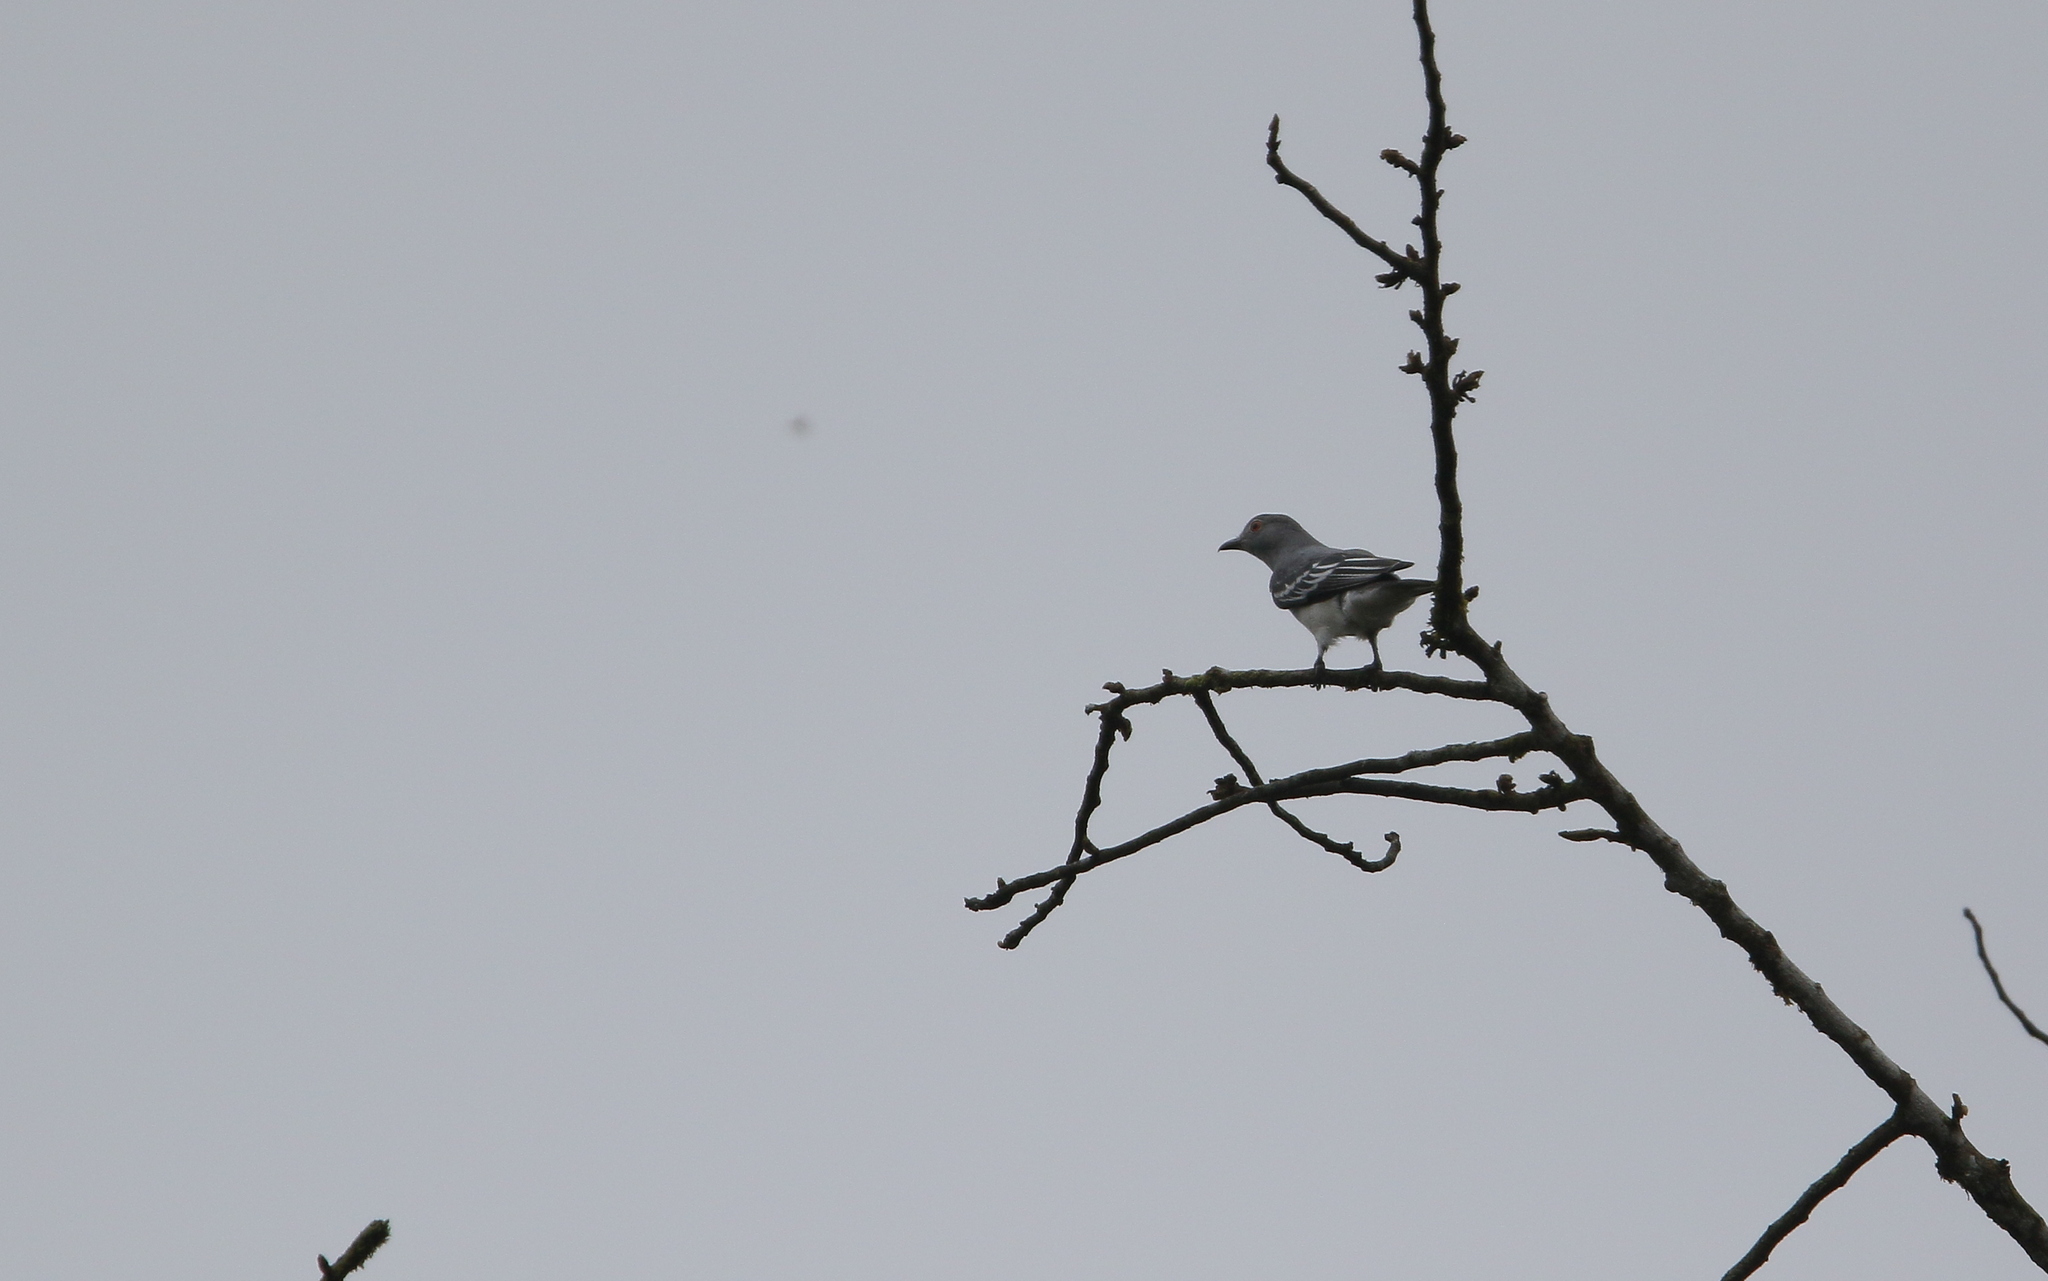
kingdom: Animalia
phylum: Chordata
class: Aves
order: Passeriformes
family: Cotingidae
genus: Carpodectes
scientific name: Carpodectes hopkei
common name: Black-tipped cotinga
